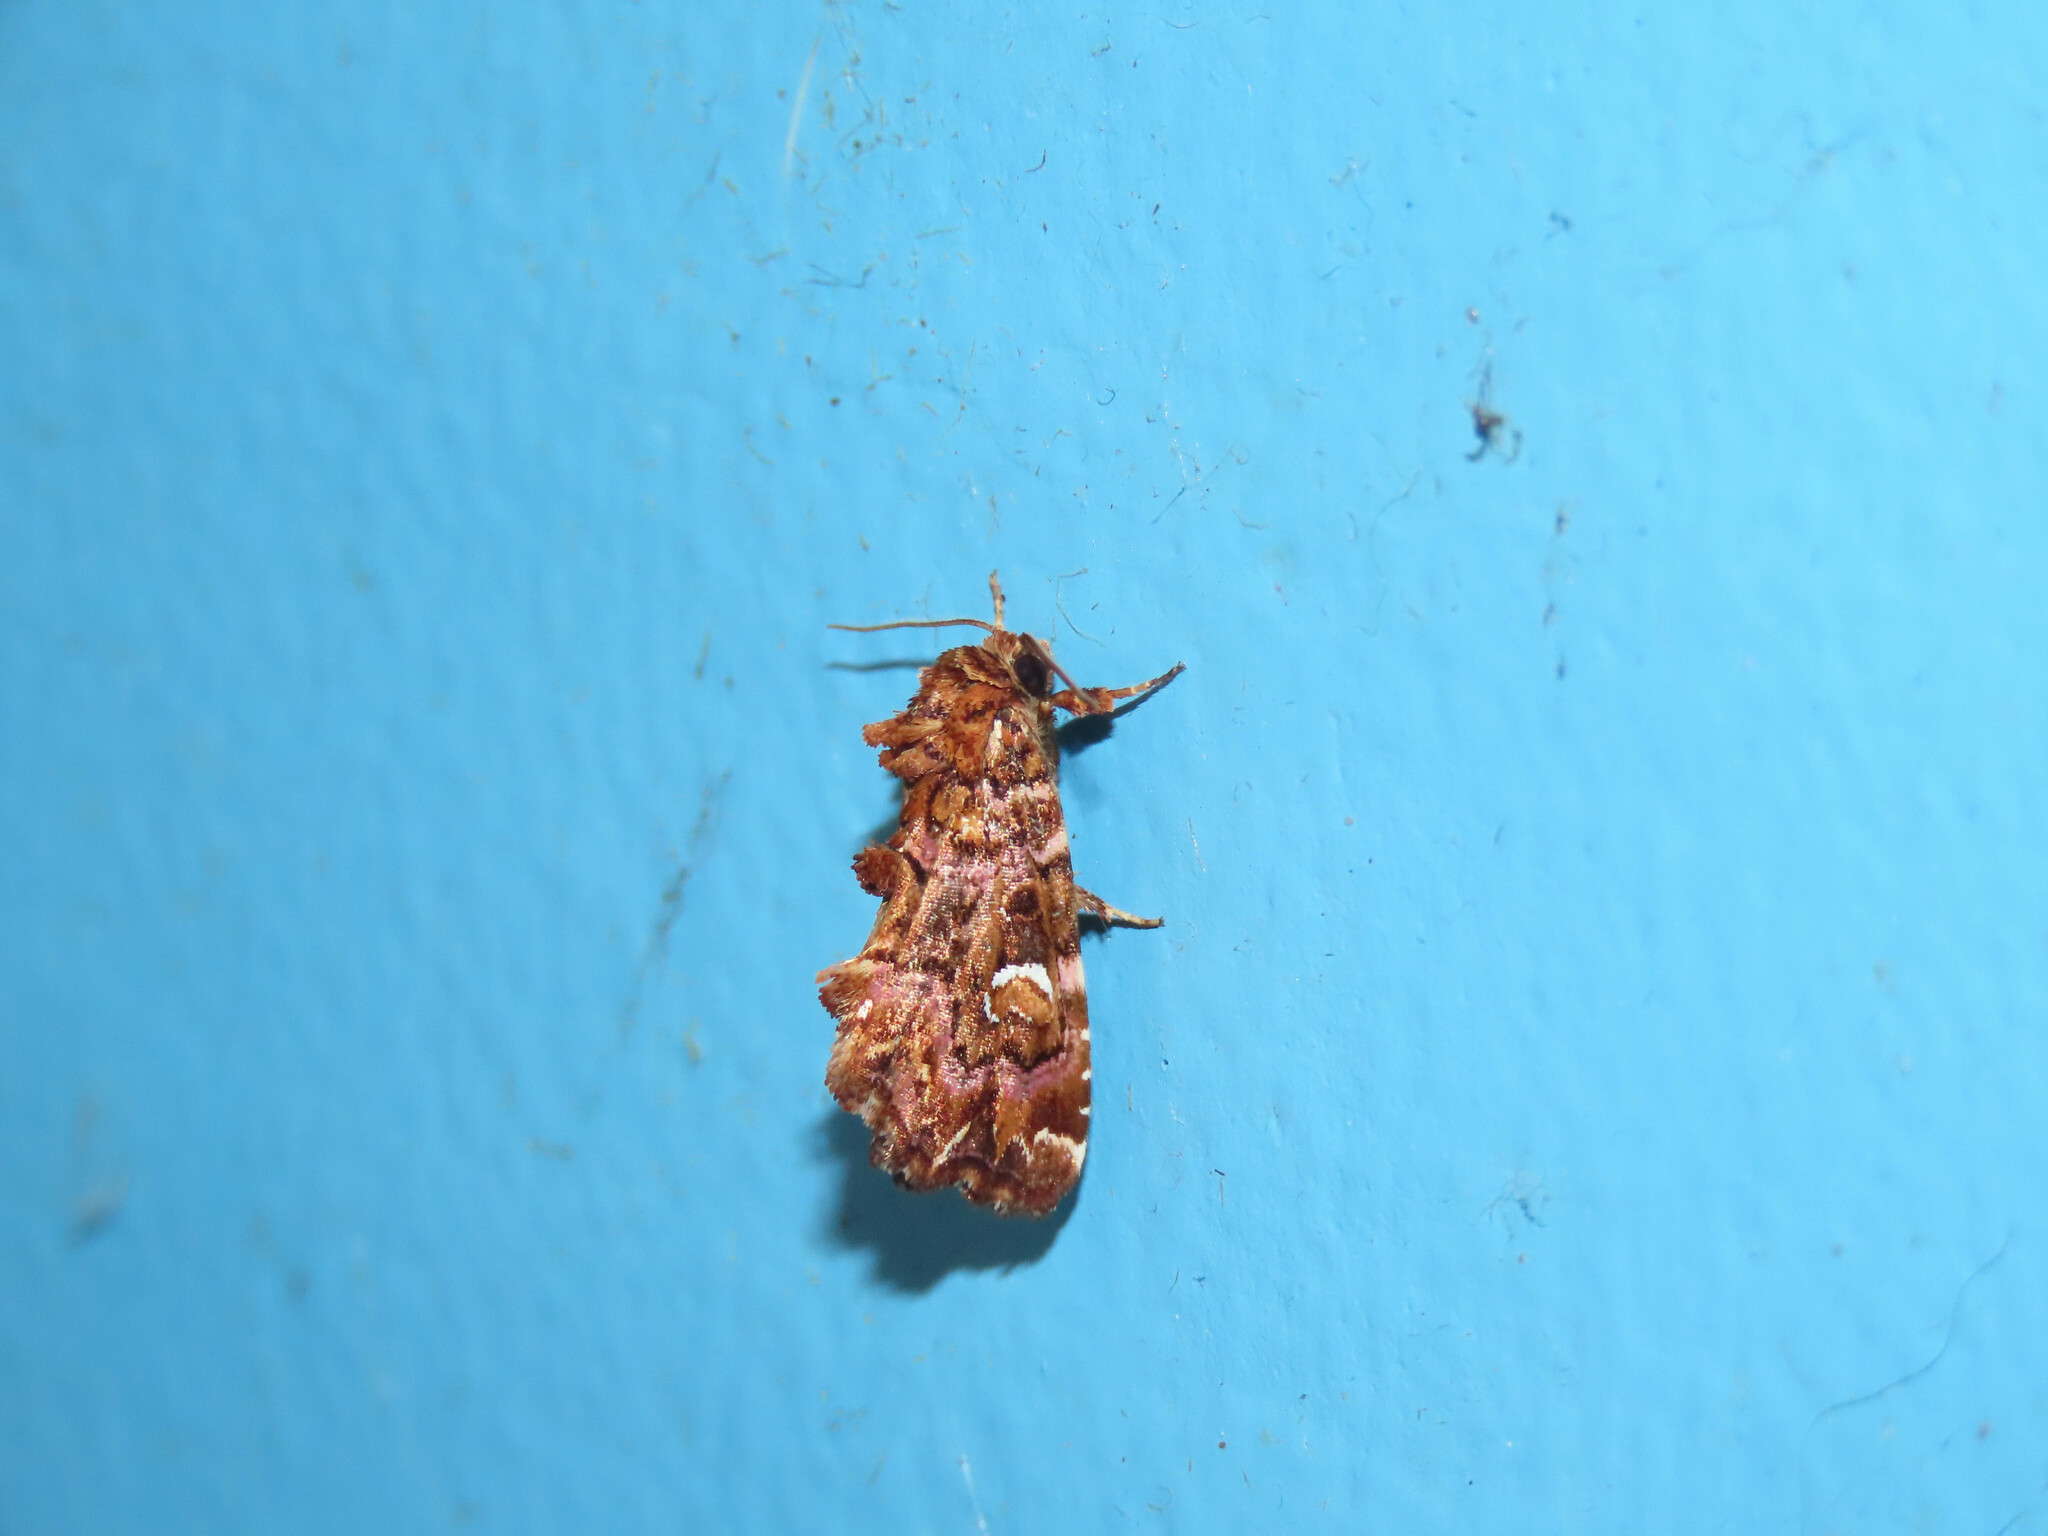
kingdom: Animalia
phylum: Arthropoda
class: Insecta
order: Lepidoptera
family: Noctuidae
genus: Callopistria
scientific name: Callopistria mollissima
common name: Pink-shaded fern moth
